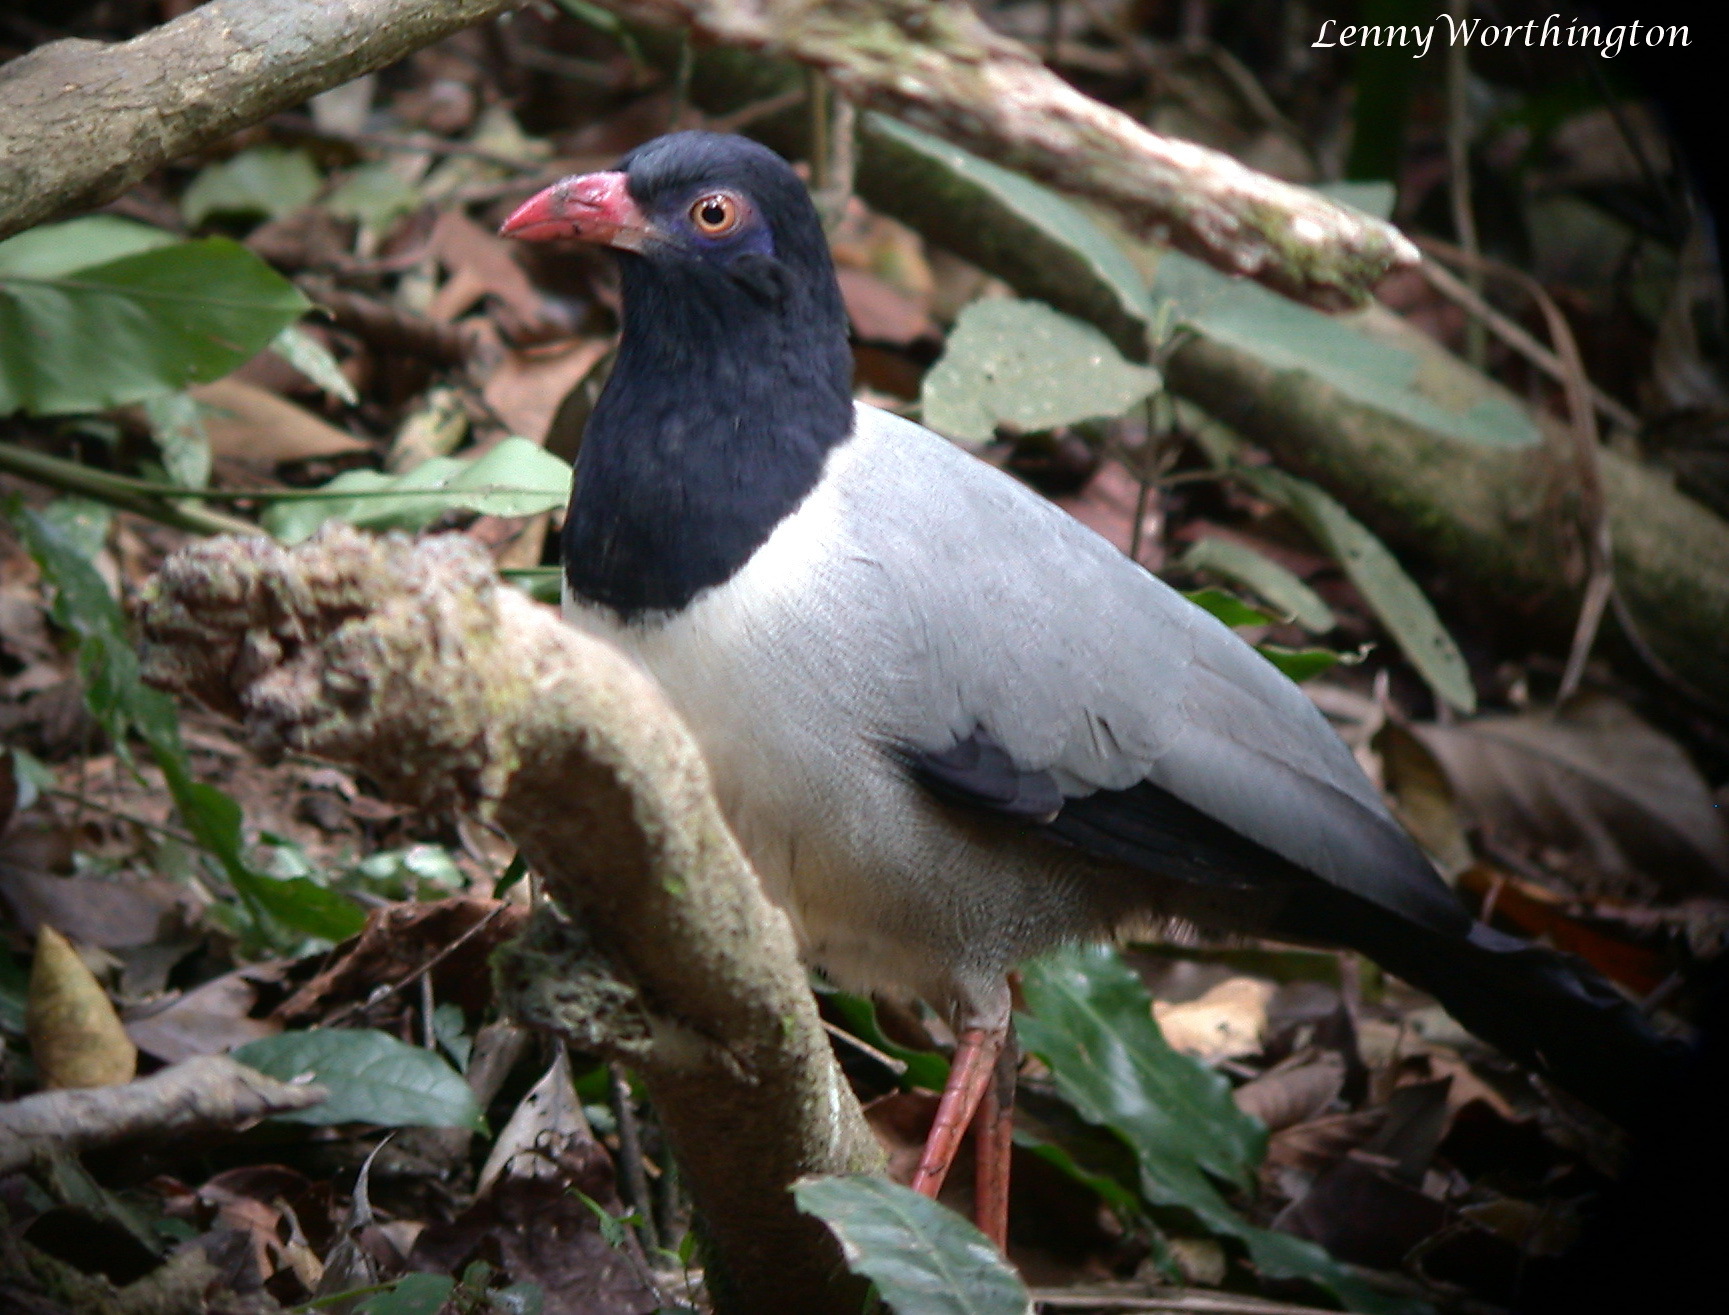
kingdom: Animalia
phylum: Chordata
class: Aves
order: Cuculiformes
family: Cuculidae
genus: Carpococcyx
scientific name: Carpococcyx renauldi
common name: Coral-billed ground cuckoo
